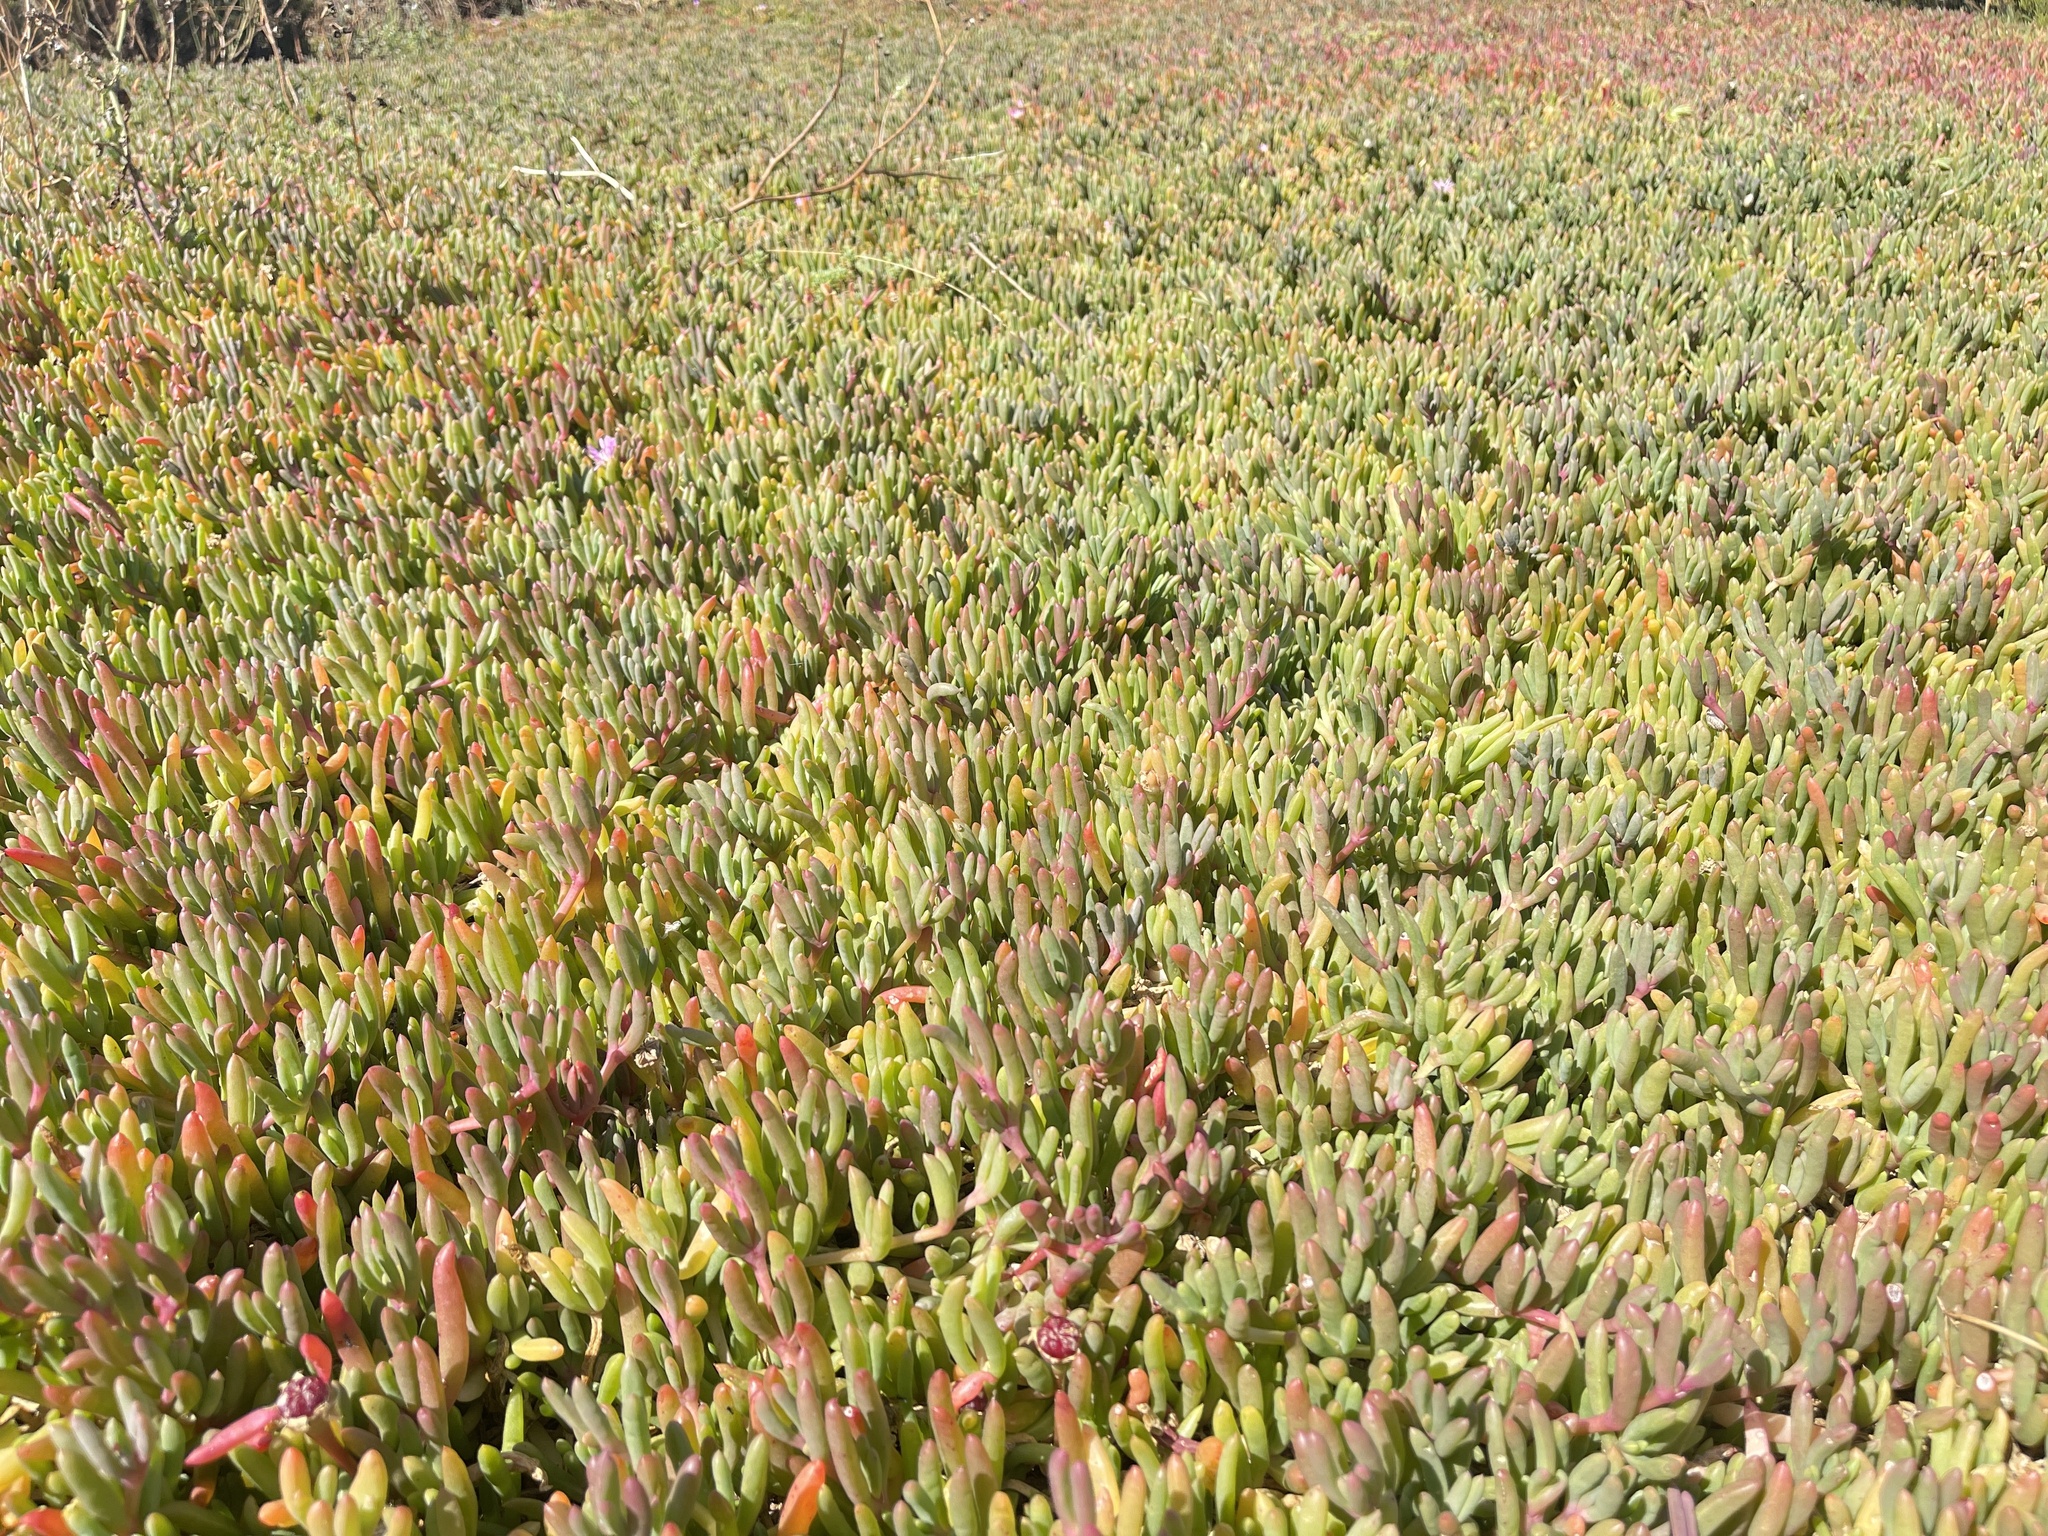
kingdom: Plantae
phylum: Tracheophyta
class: Magnoliopsida
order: Caryophyllales
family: Aizoaceae
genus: Disphyma
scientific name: Disphyma clavellatum
